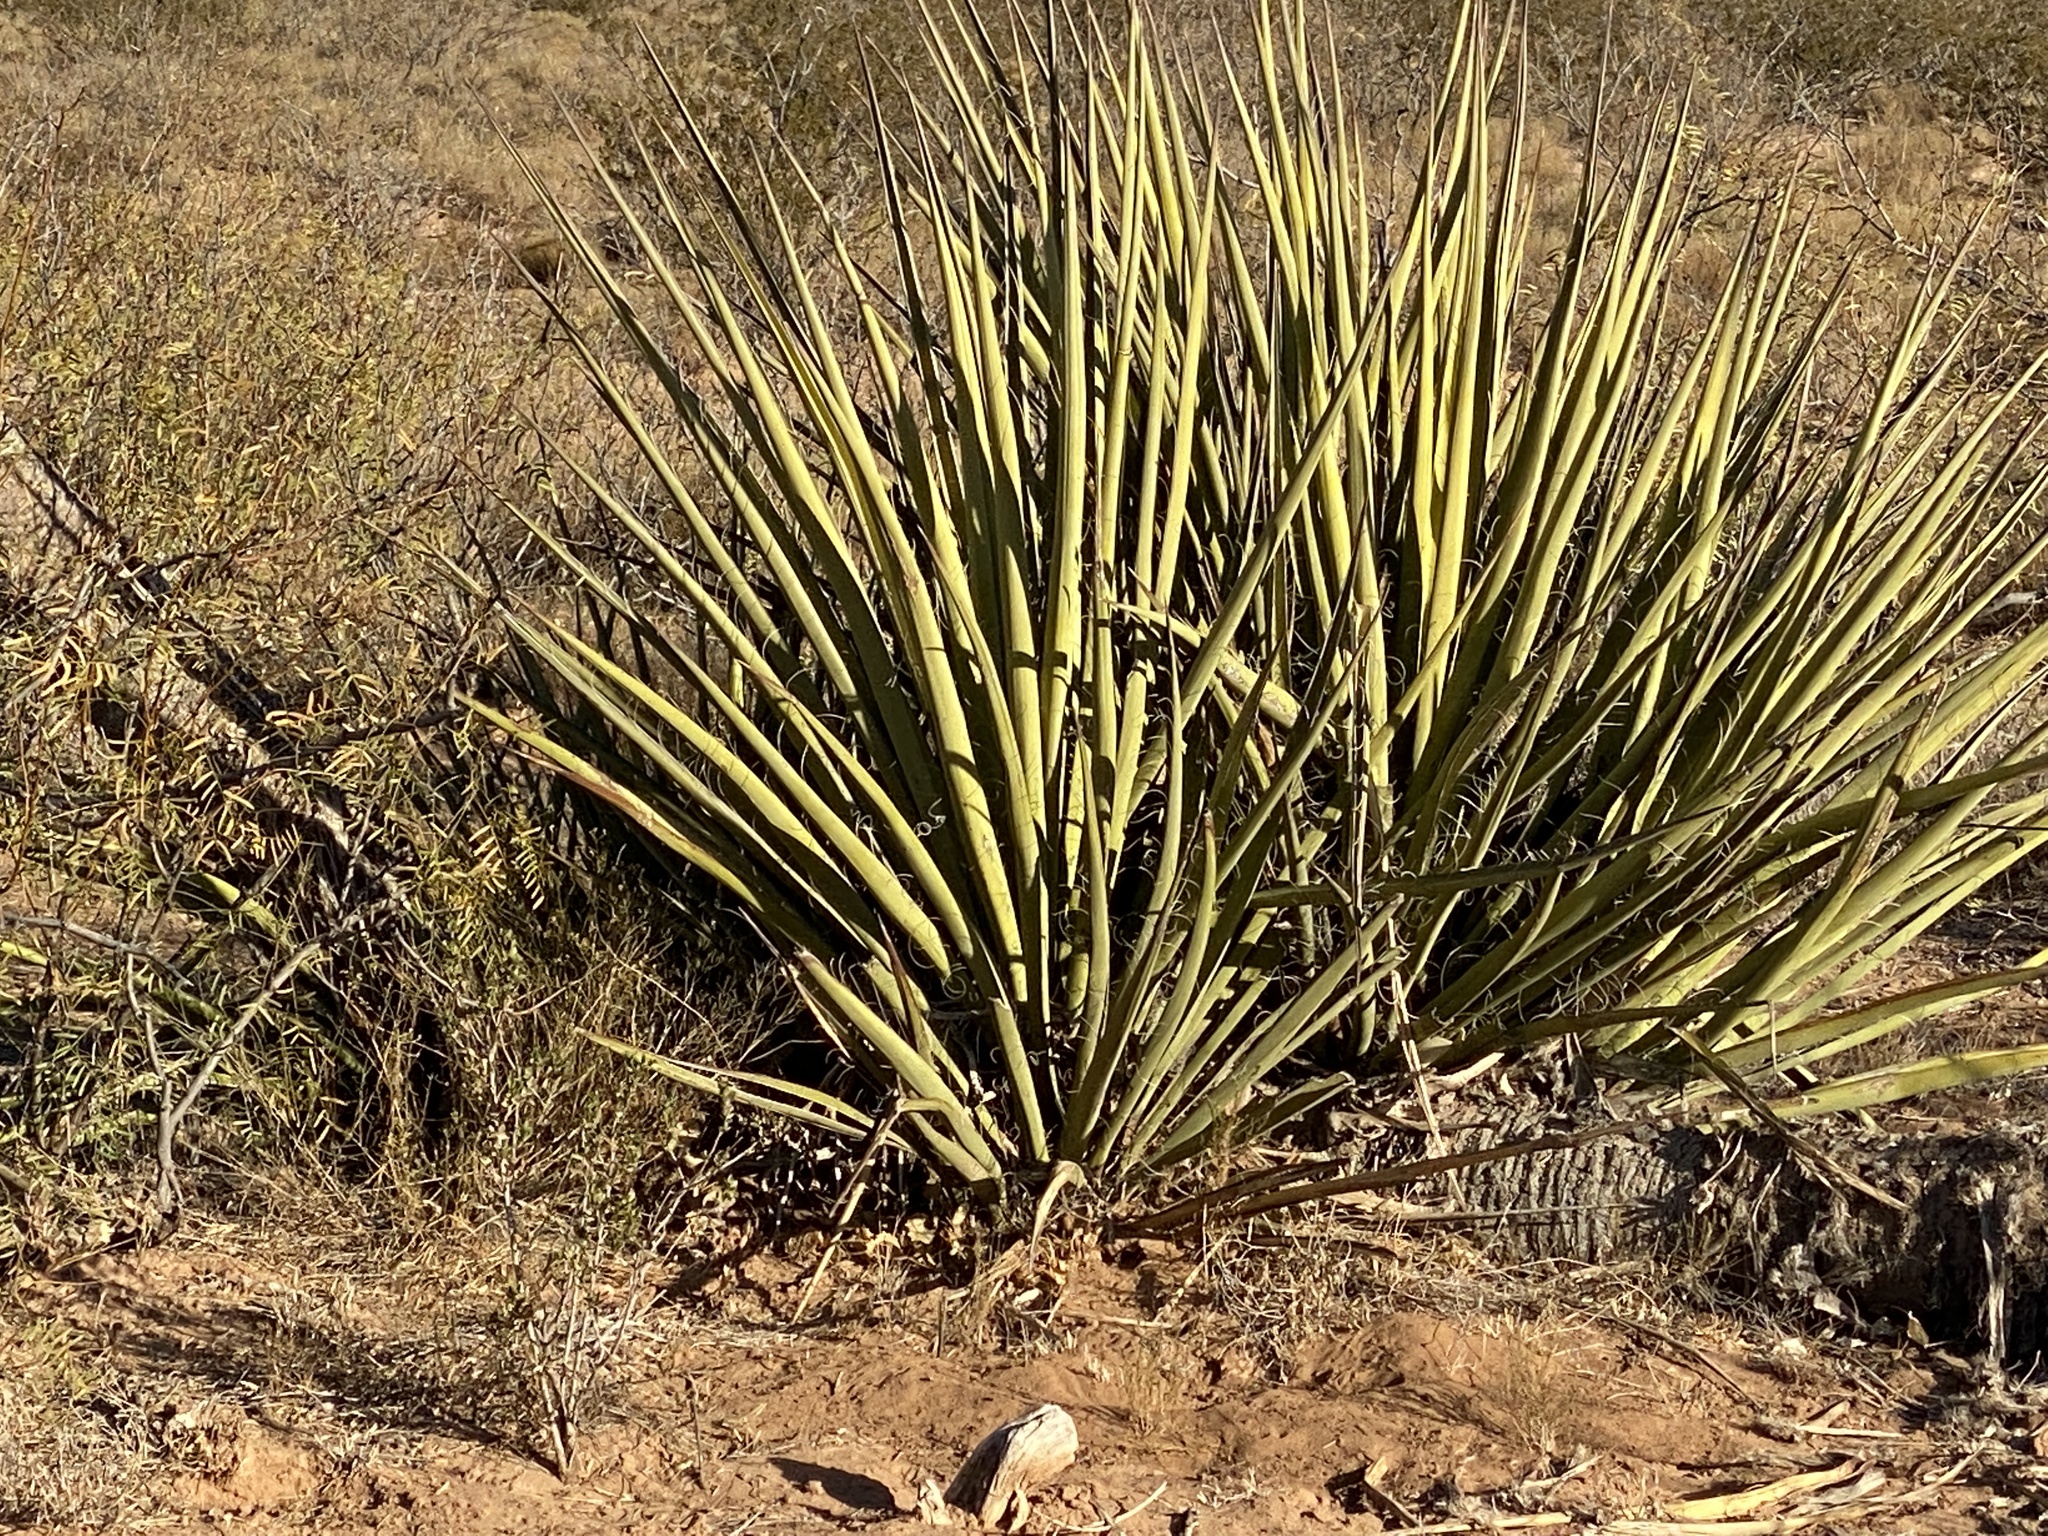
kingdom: Plantae
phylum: Tracheophyta
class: Liliopsida
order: Asparagales
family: Asparagaceae
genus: Yucca
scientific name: Yucca treculiana
